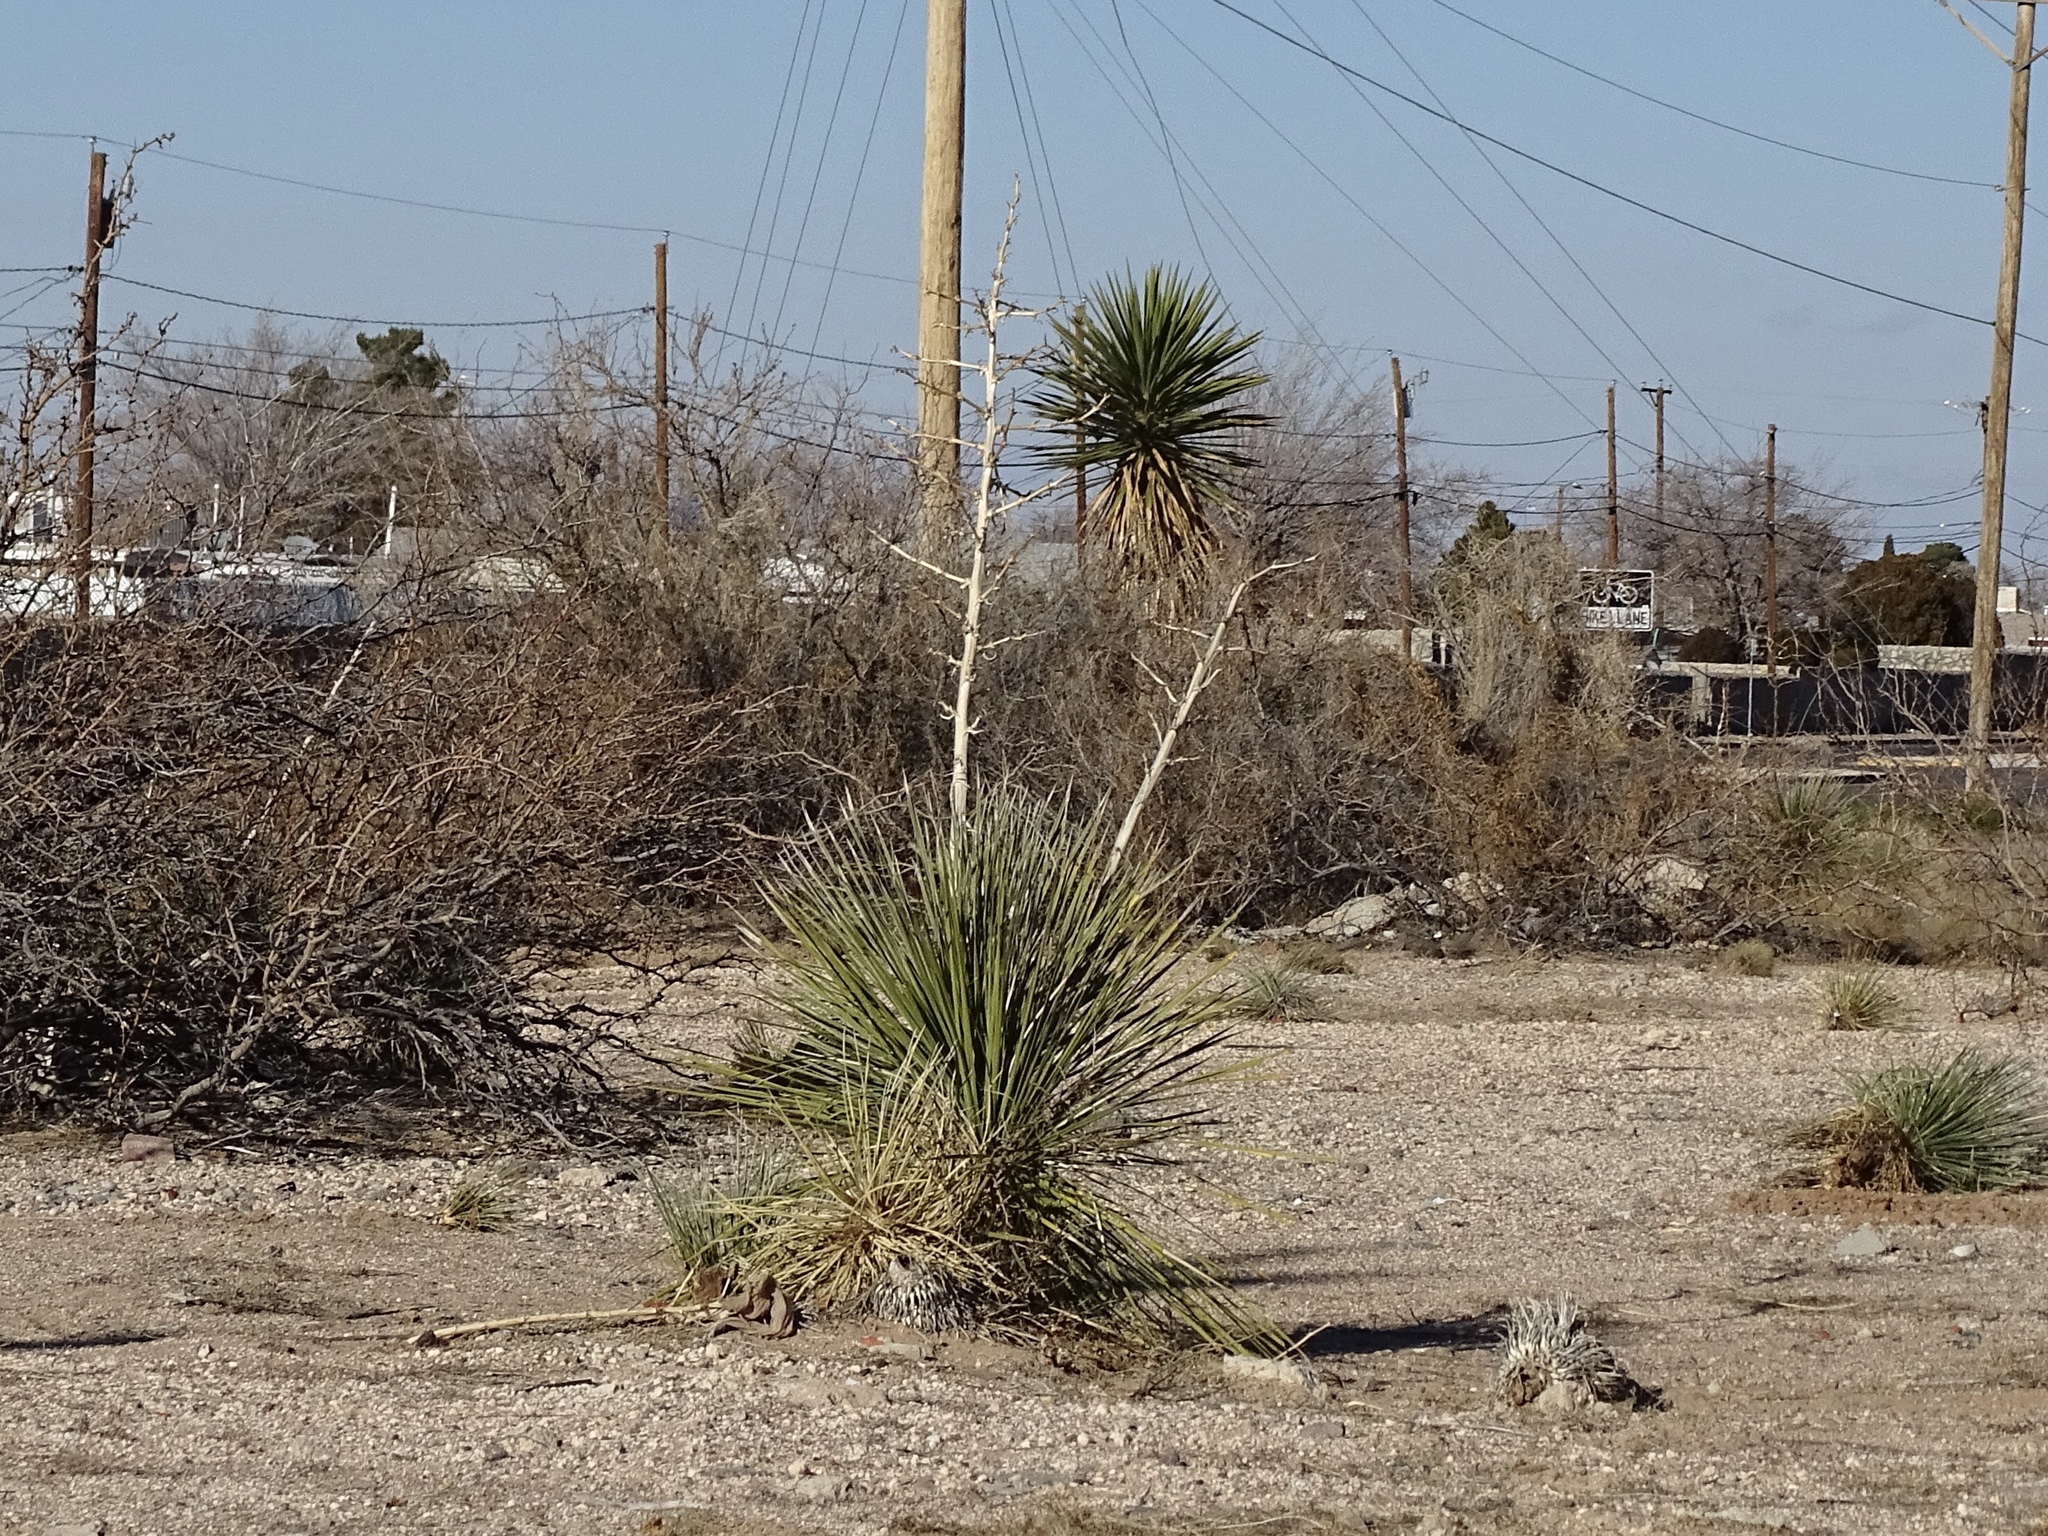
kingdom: Plantae
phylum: Tracheophyta
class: Liliopsida
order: Asparagales
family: Asparagaceae
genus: Yucca
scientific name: Yucca elata
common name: Palmella
